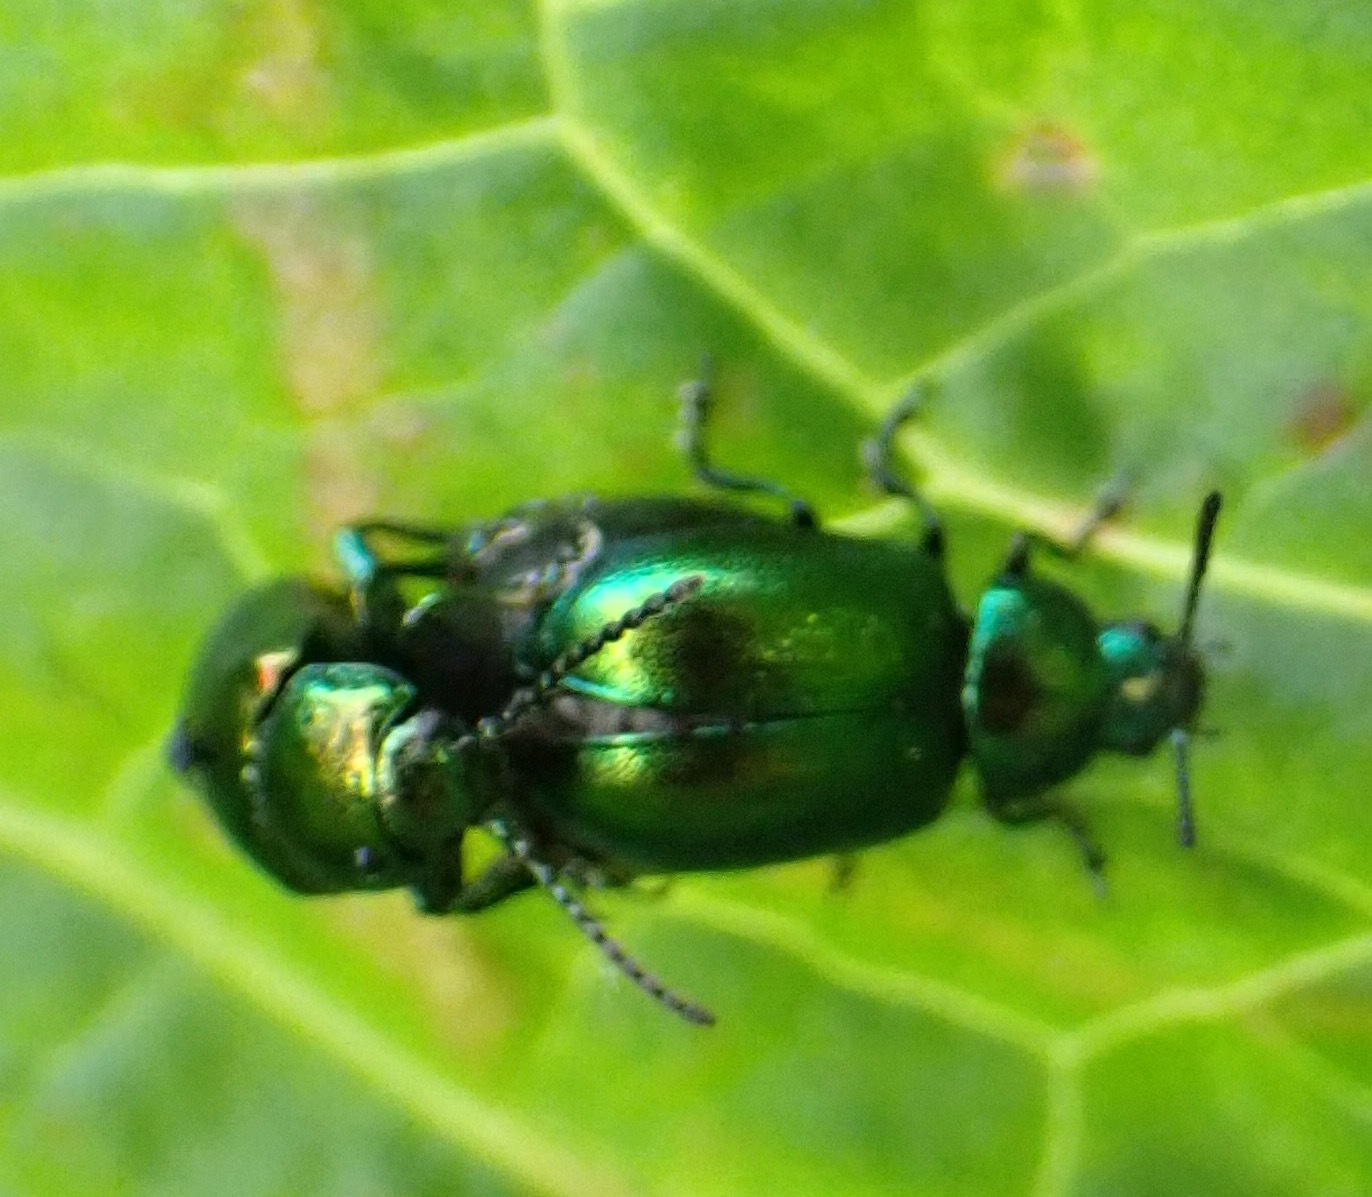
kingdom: Animalia
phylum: Arthropoda
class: Insecta
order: Coleoptera
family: Chrysomelidae
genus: Gastrophysa
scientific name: Gastrophysa viridula
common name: Green dock beetle
